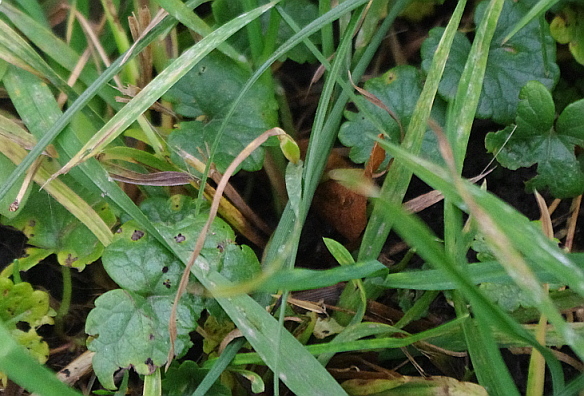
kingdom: Plantae
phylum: Tracheophyta
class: Magnoliopsida
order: Lamiales
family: Lamiaceae
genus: Glechoma
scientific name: Glechoma hederacea
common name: Ground ivy
